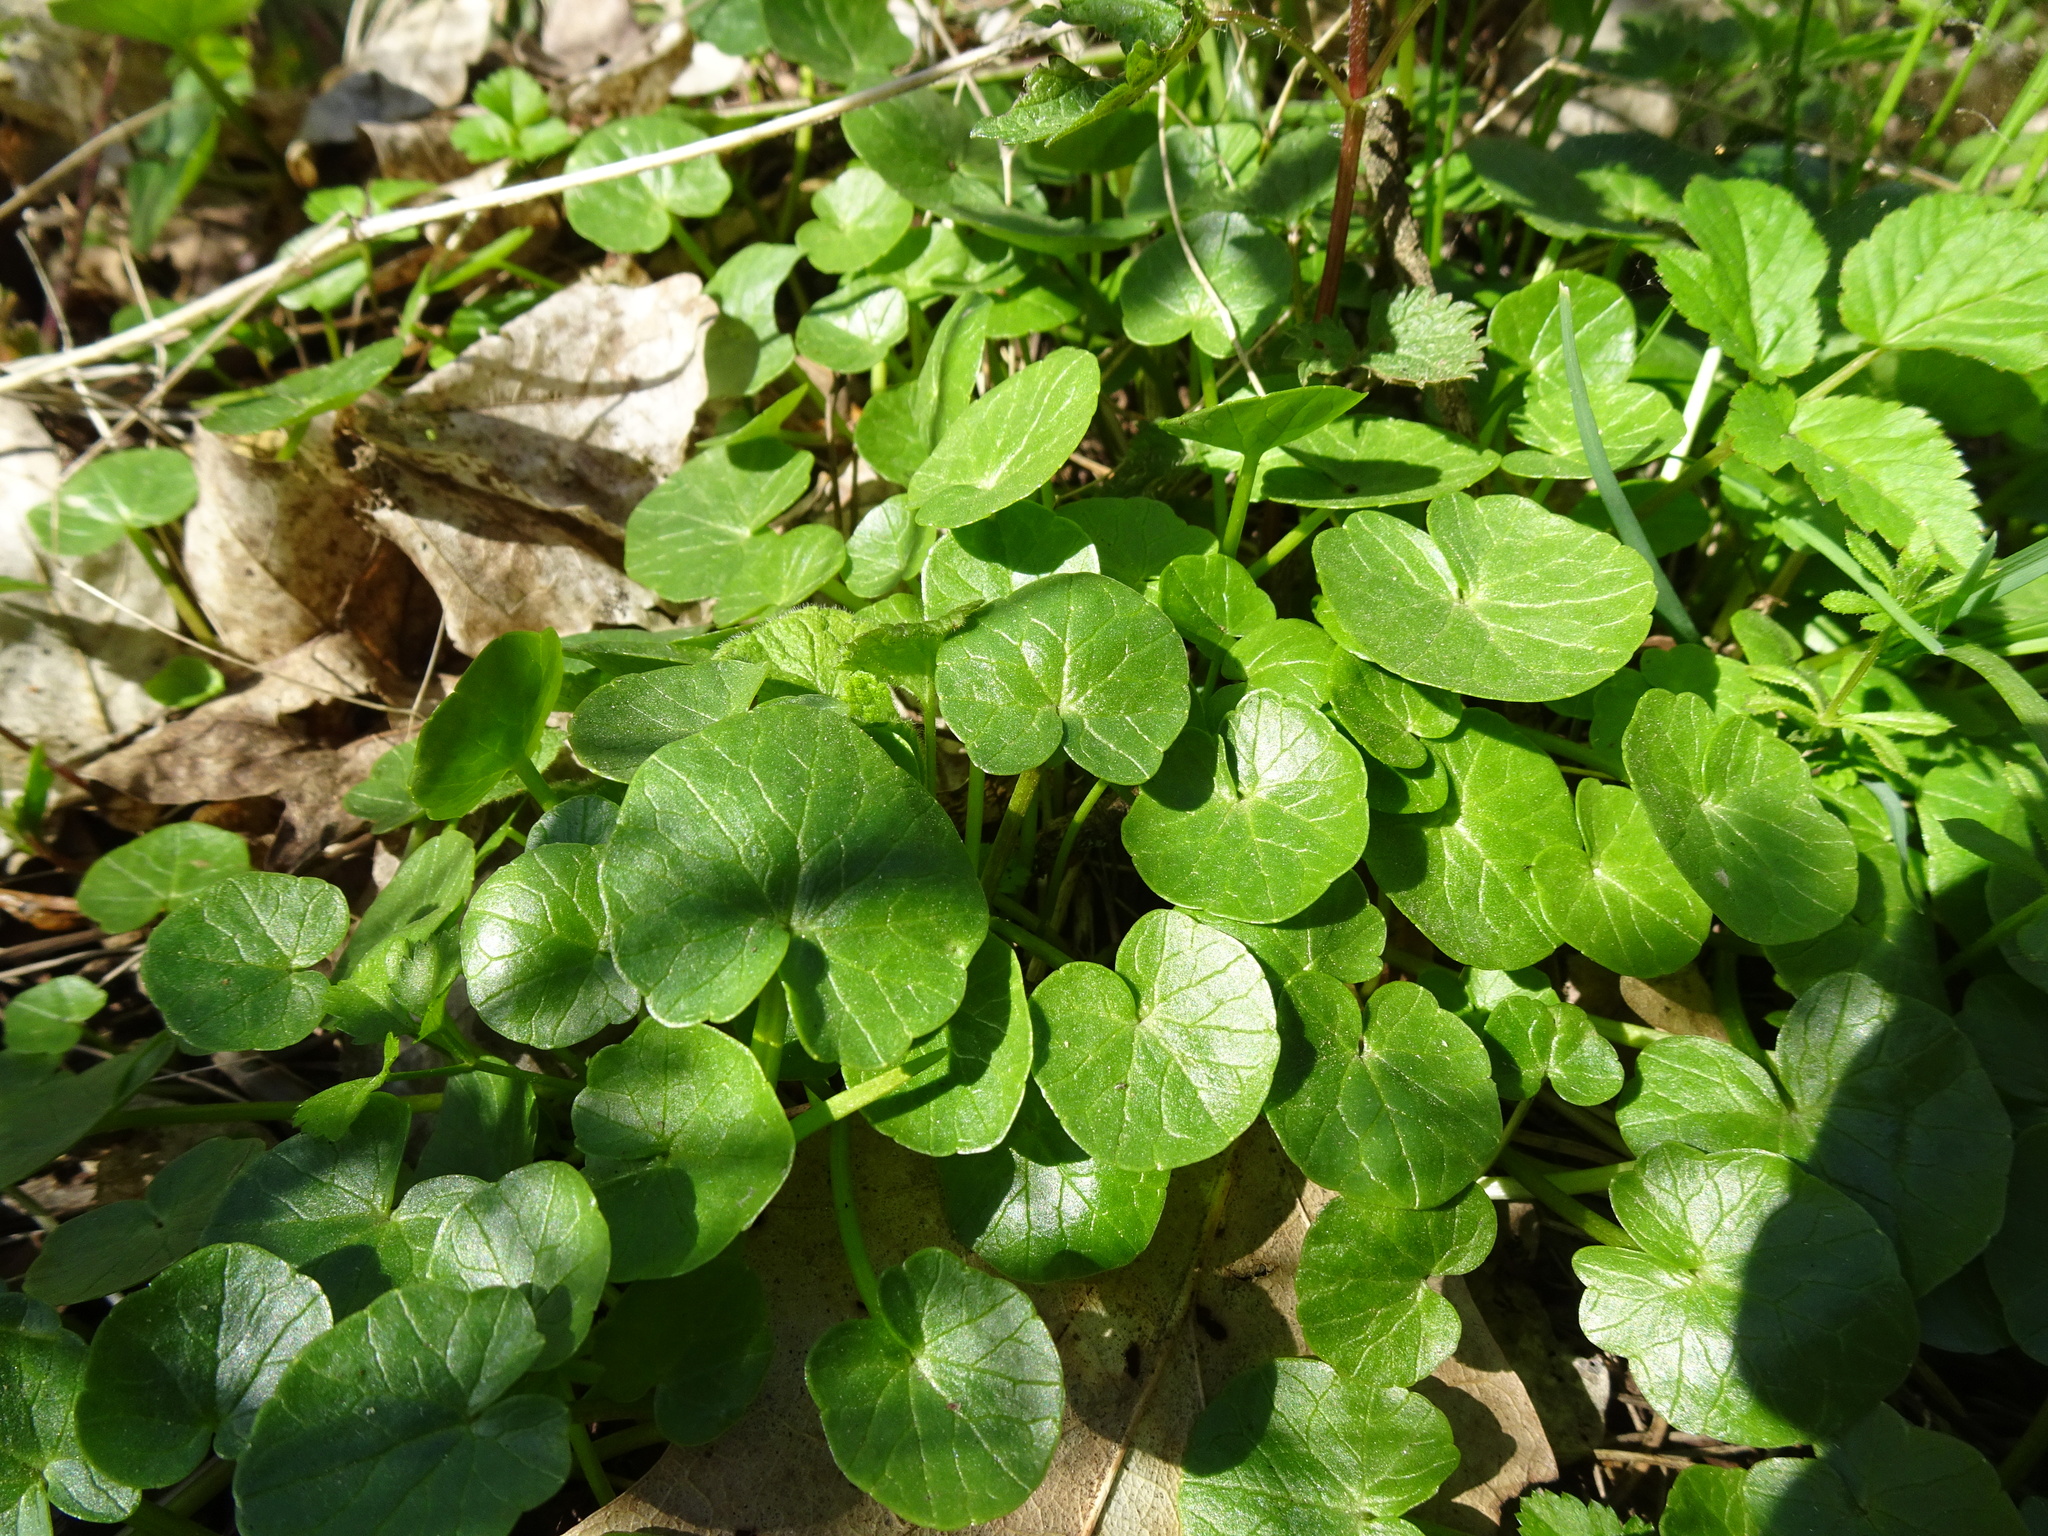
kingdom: Plantae
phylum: Tracheophyta
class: Magnoliopsida
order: Ranunculales
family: Ranunculaceae
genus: Ficaria
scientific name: Ficaria verna
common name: Lesser celandine
